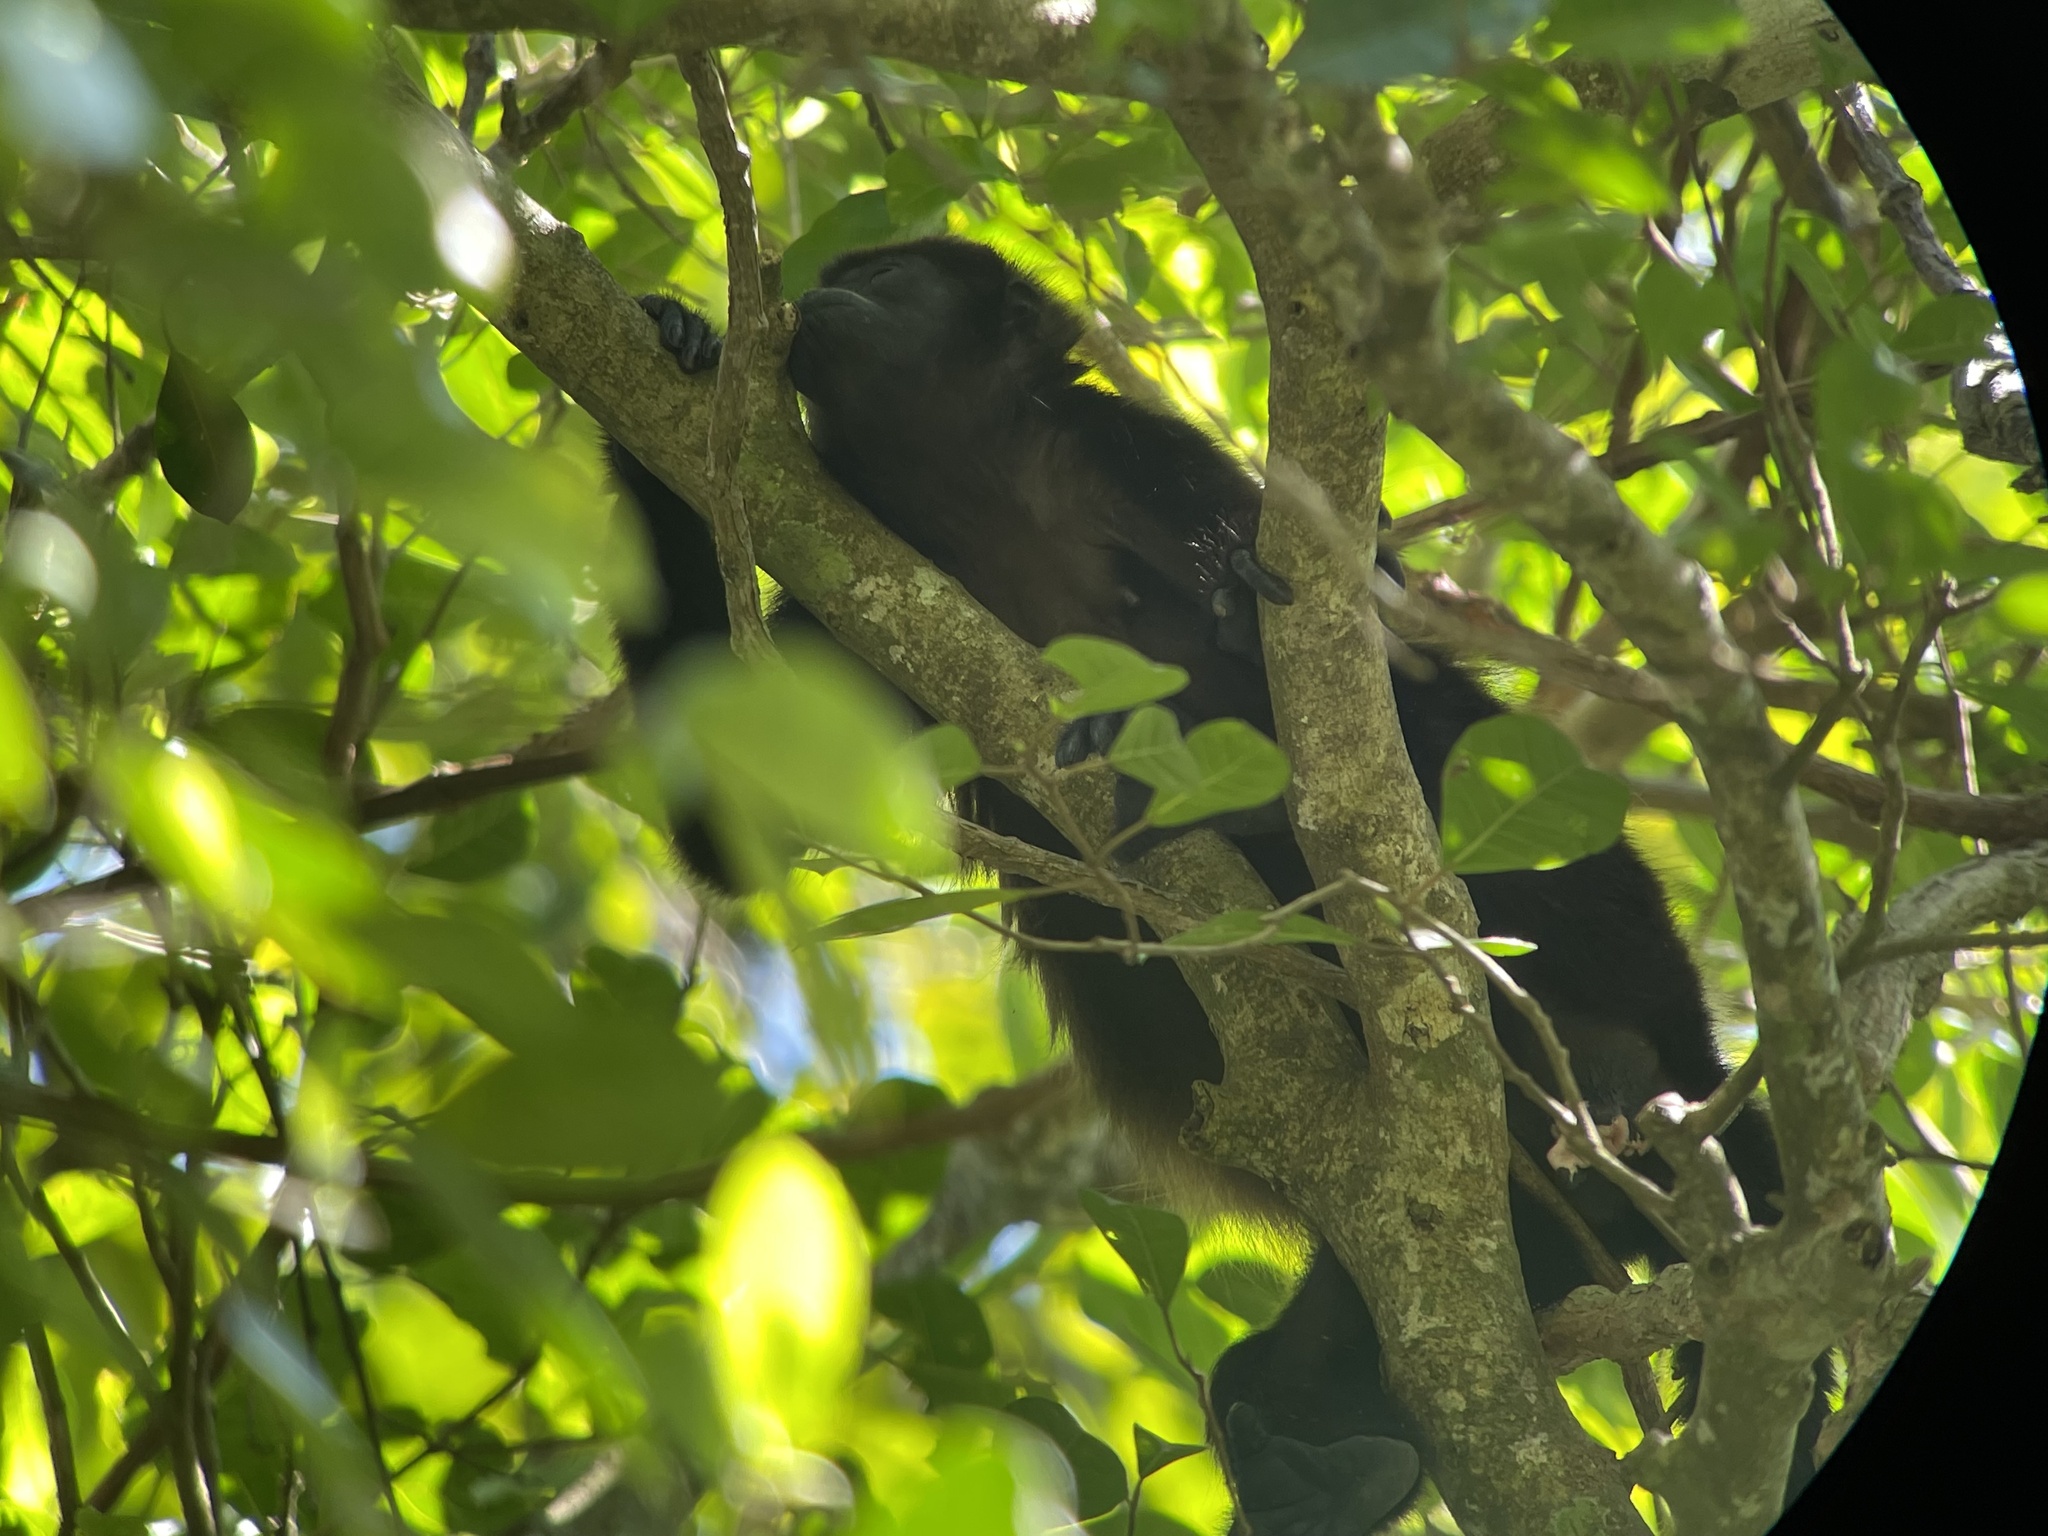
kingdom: Animalia
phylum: Chordata
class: Mammalia
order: Primates
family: Atelidae
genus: Alouatta
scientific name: Alouatta palliata
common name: Mantled howler
